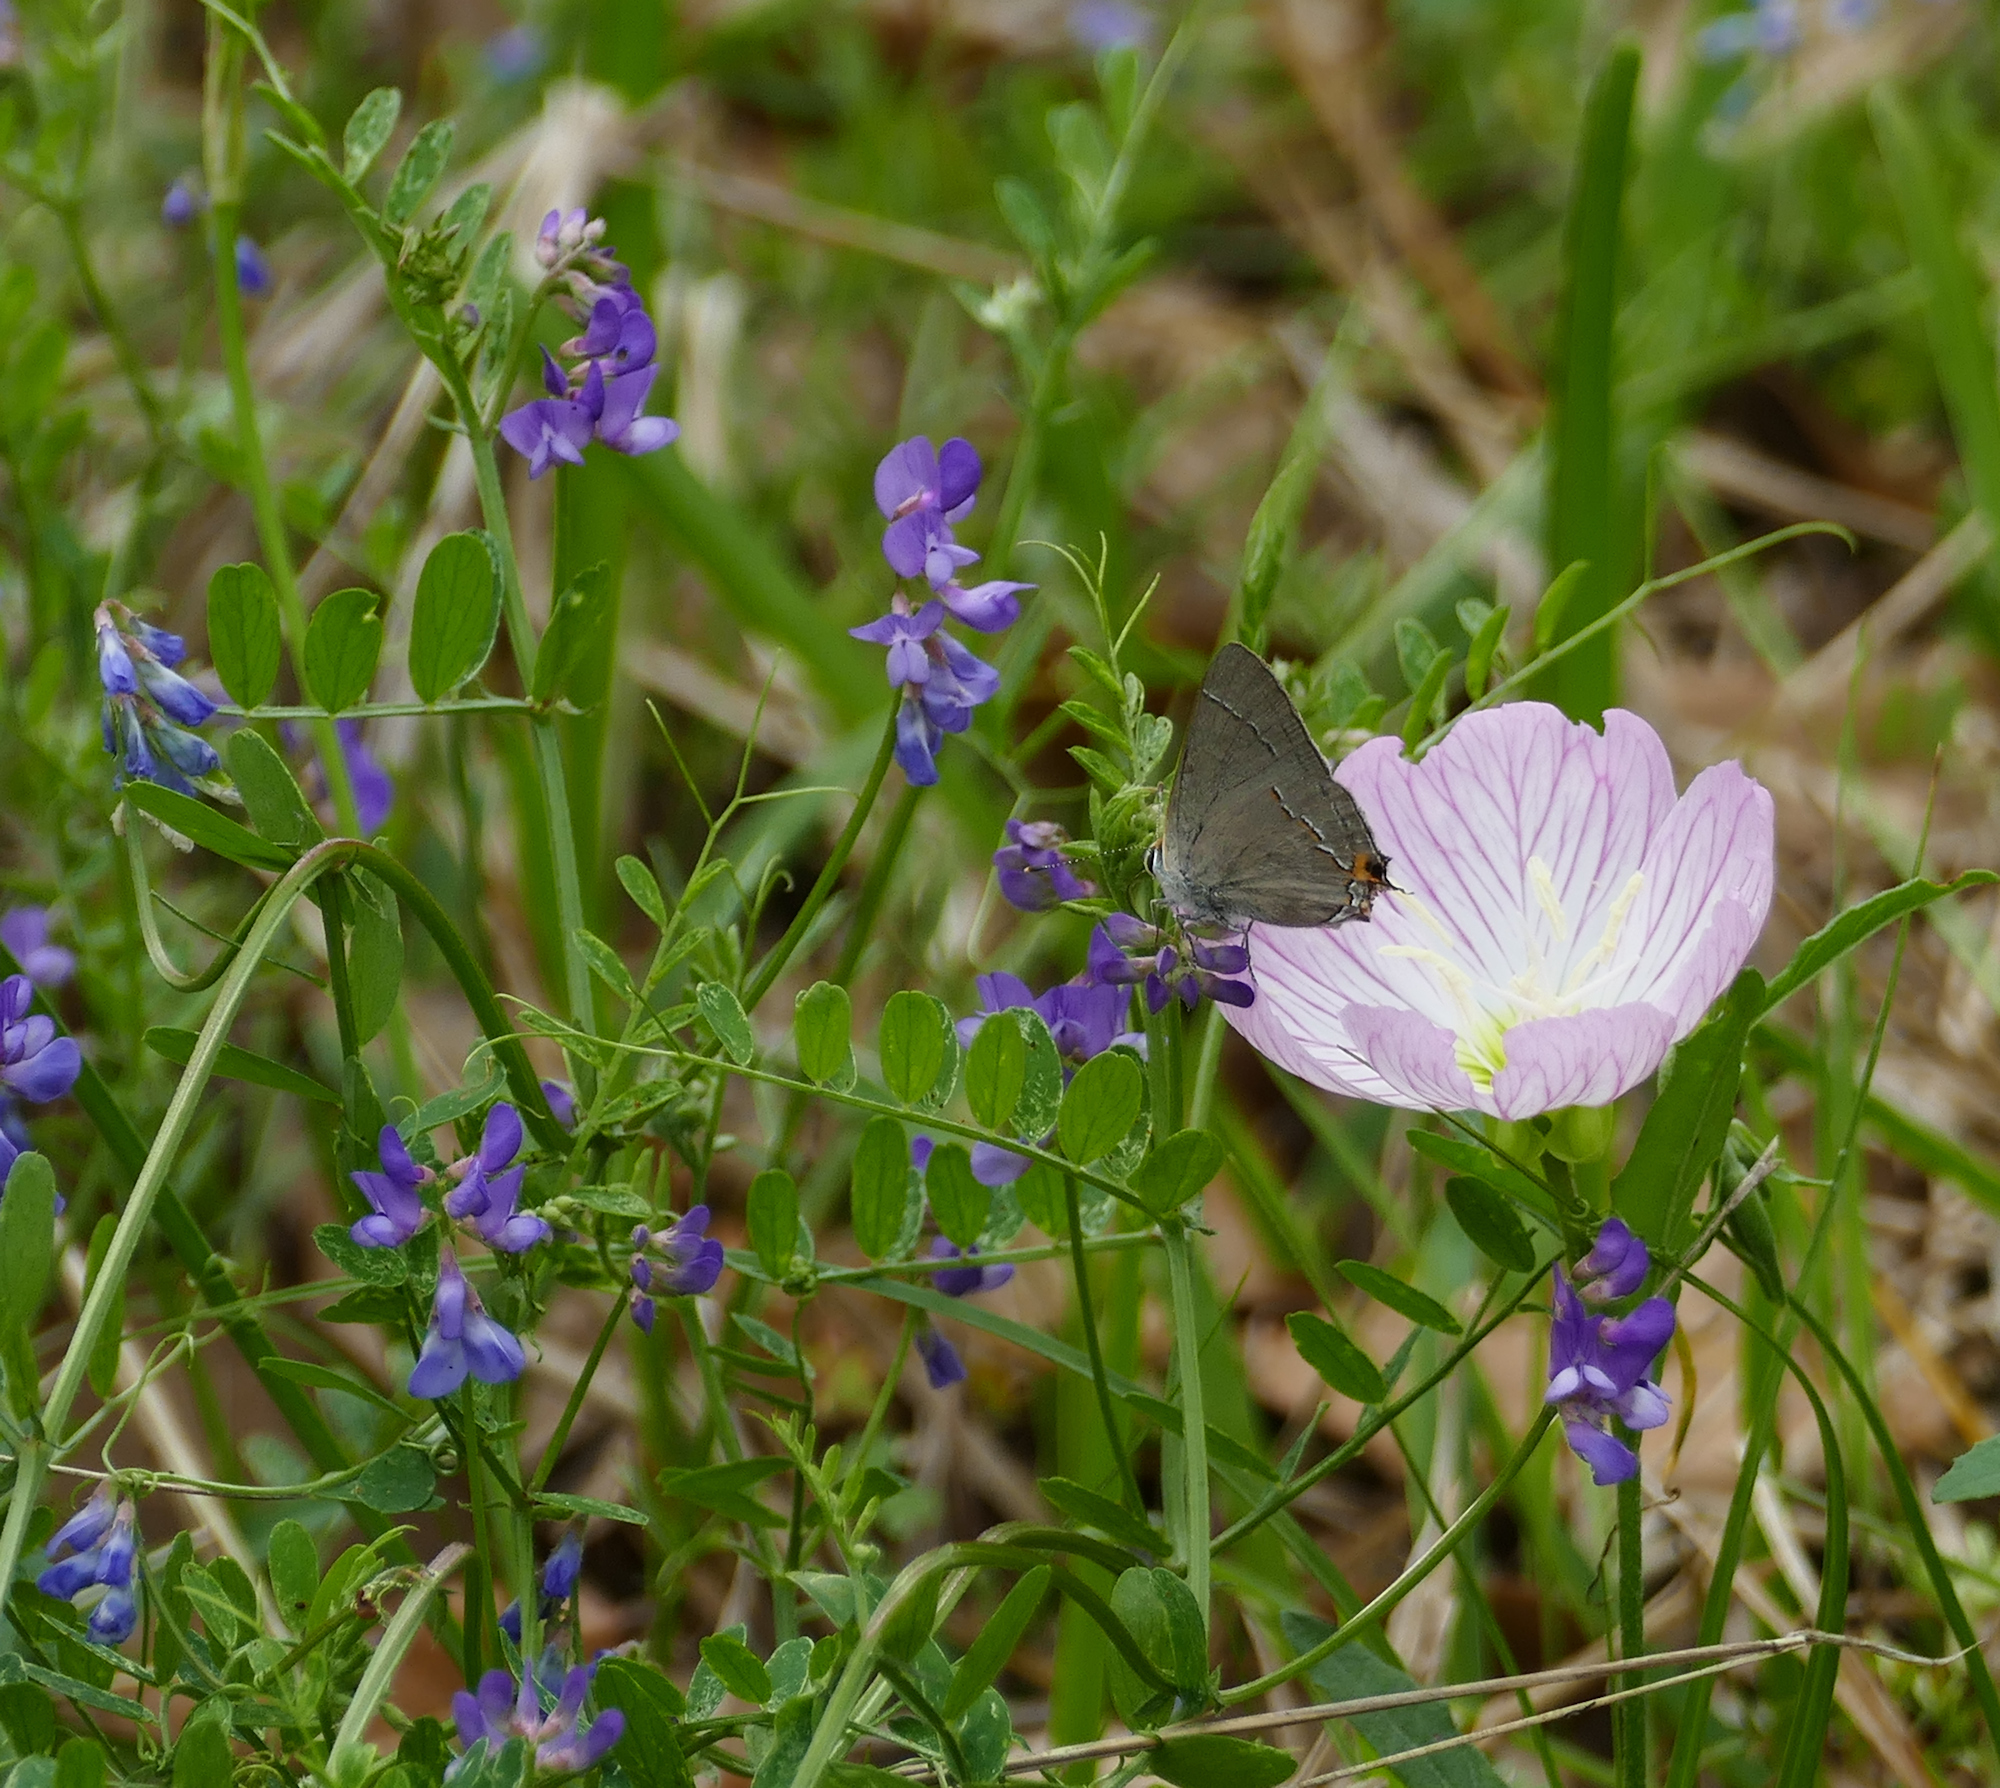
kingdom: Plantae
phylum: Tracheophyta
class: Magnoliopsida
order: Fabales
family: Fabaceae
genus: Vicia
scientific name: Vicia ludoviciana
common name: Louisiana vetch
